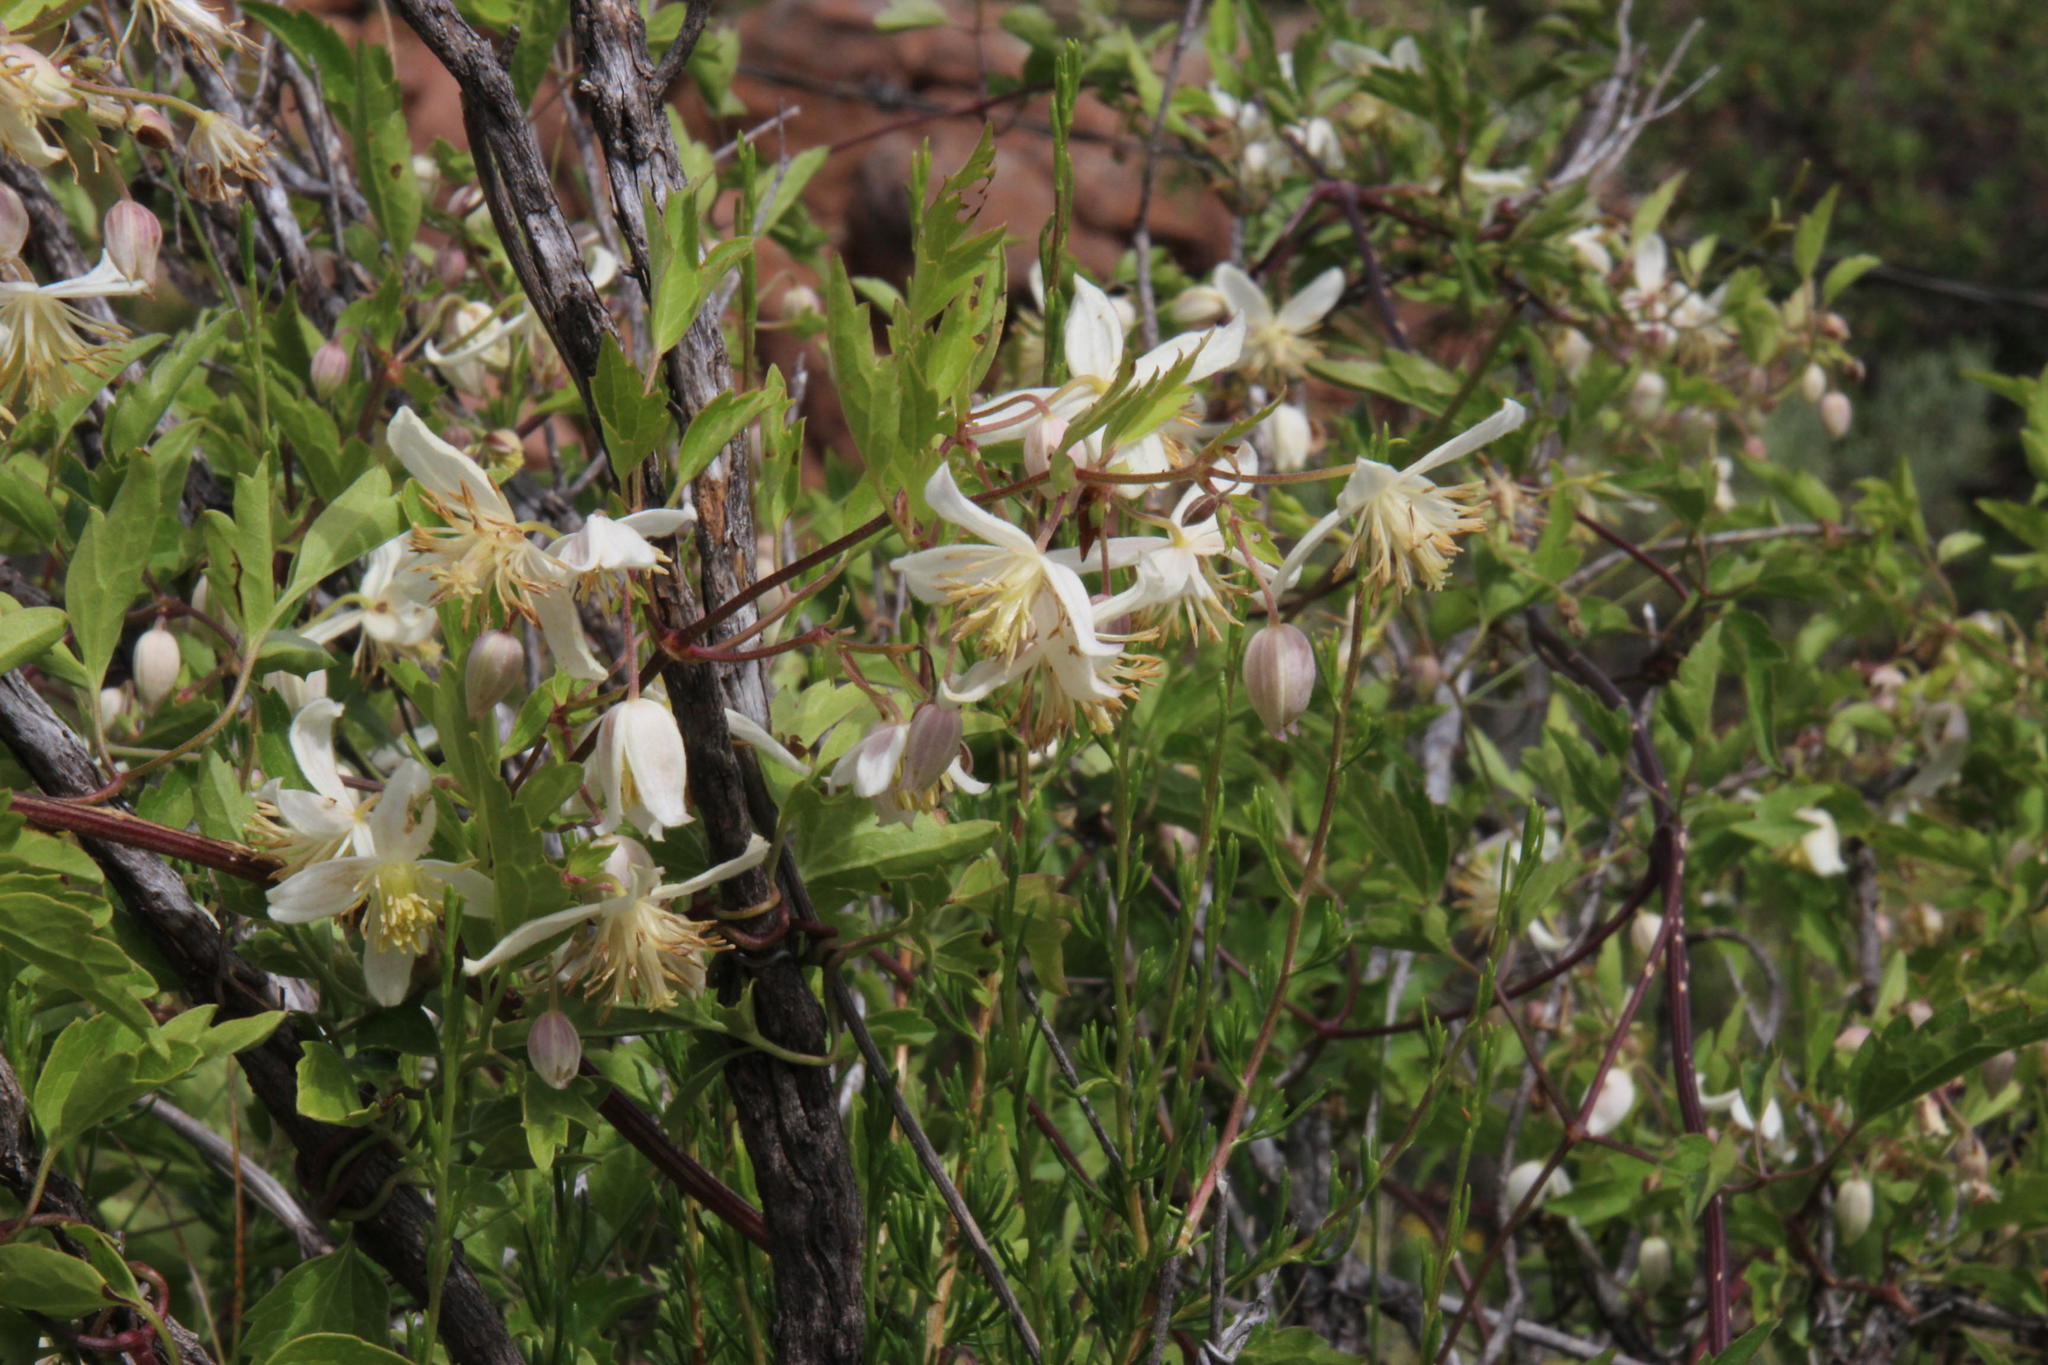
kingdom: Plantae
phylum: Tracheophyta
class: Magnoliopsida
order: Ranunculales
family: Ranunculaceae
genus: Clematis
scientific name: Clematis brachiata
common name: Traveler's-joy
